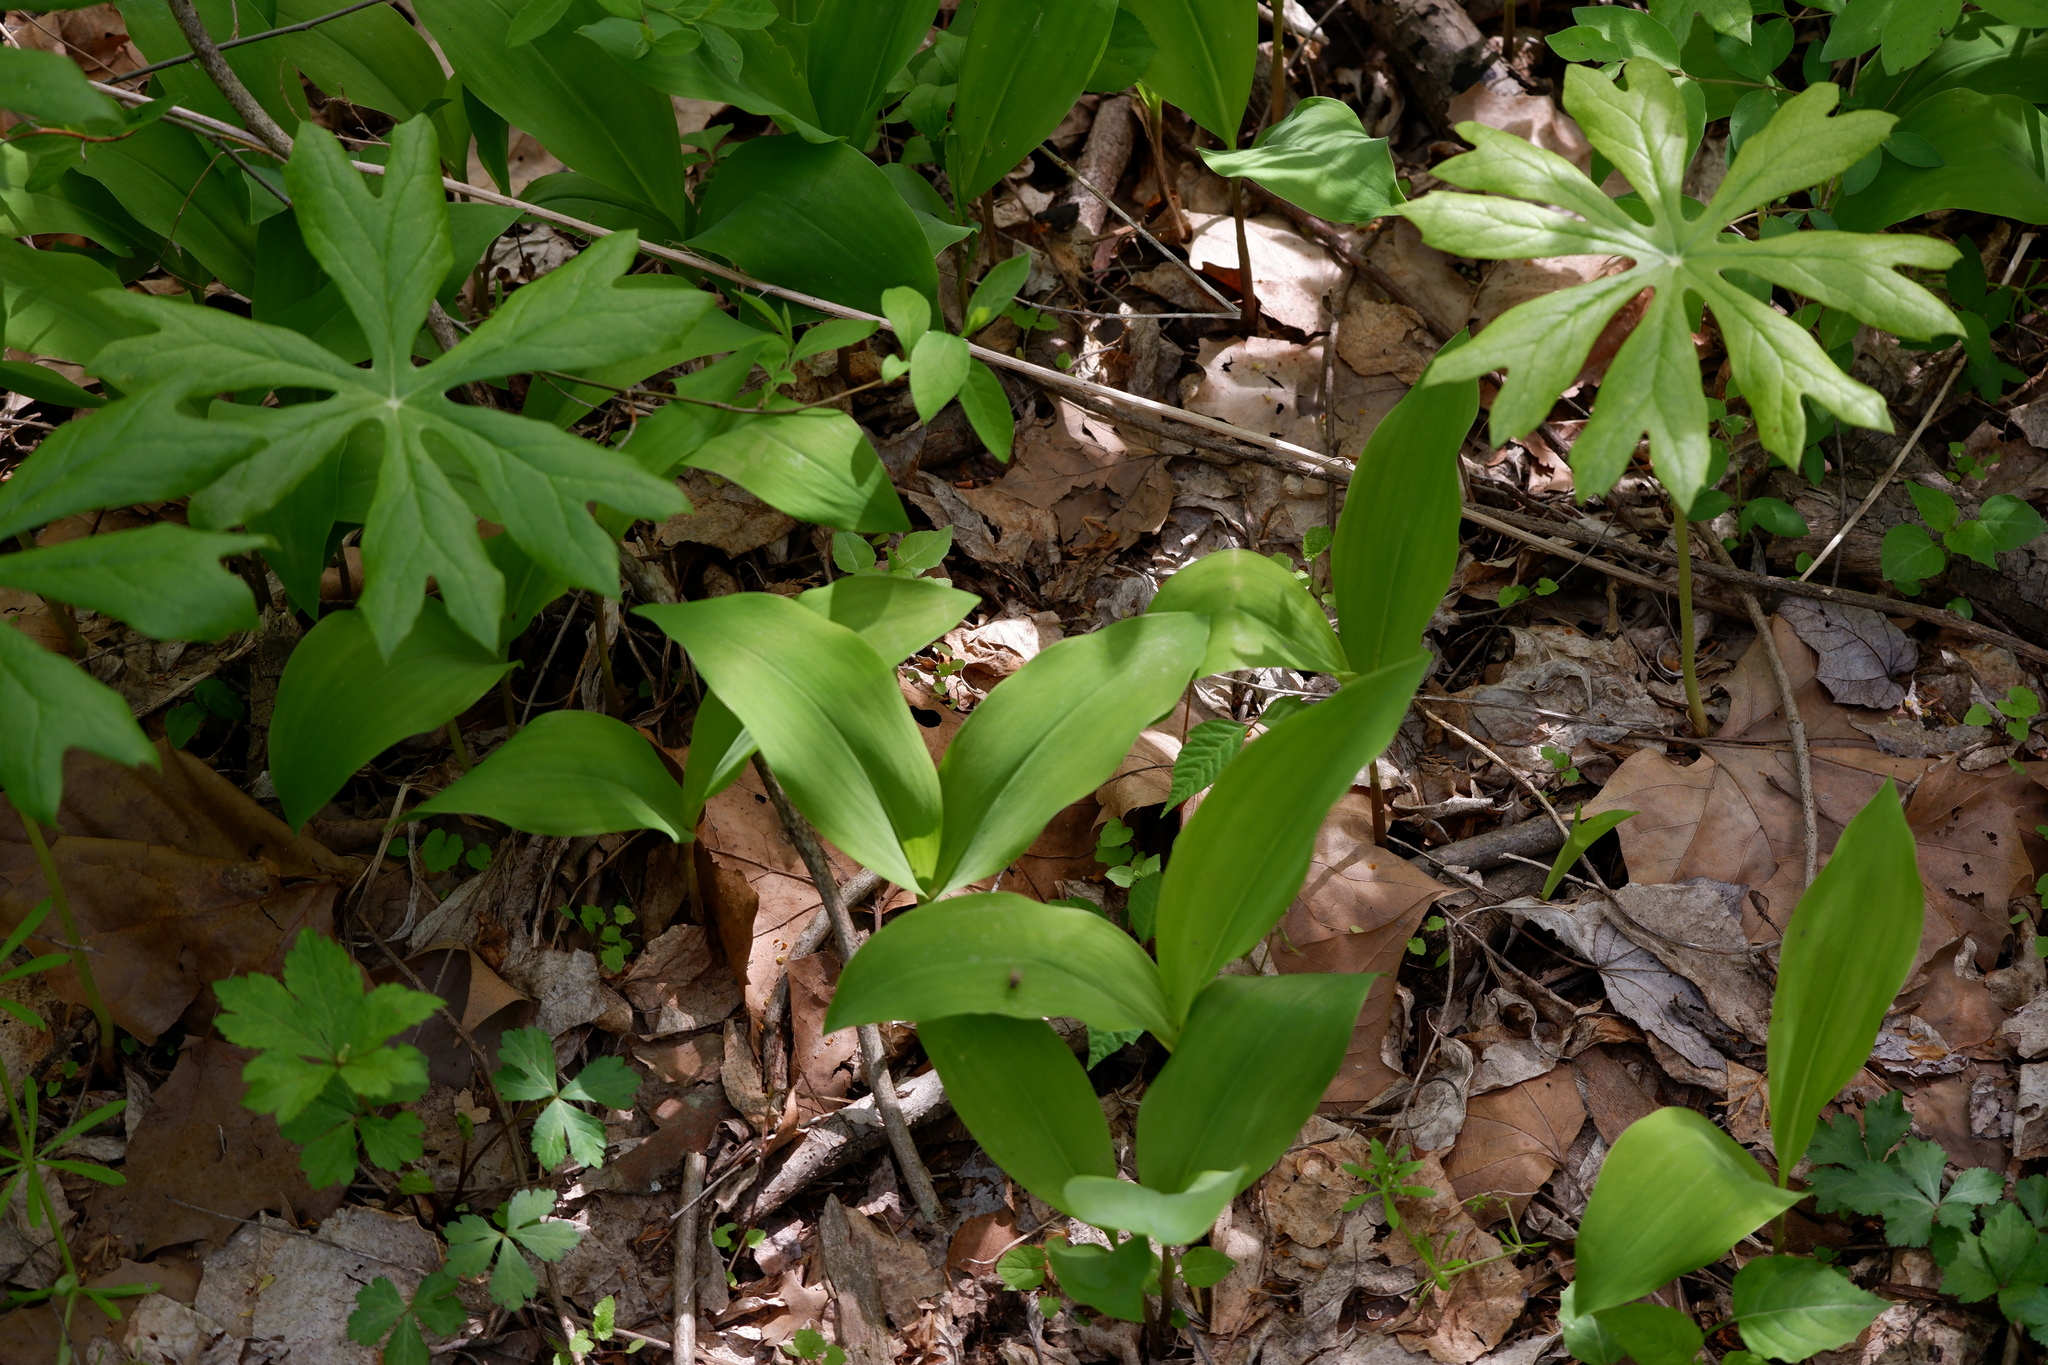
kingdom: Plantae
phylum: Tracheophyta
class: Liliopsida
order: Asparagales
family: Asparagaceae
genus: Convallaria
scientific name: Convallaria majalis
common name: Lily-of-the-valley
